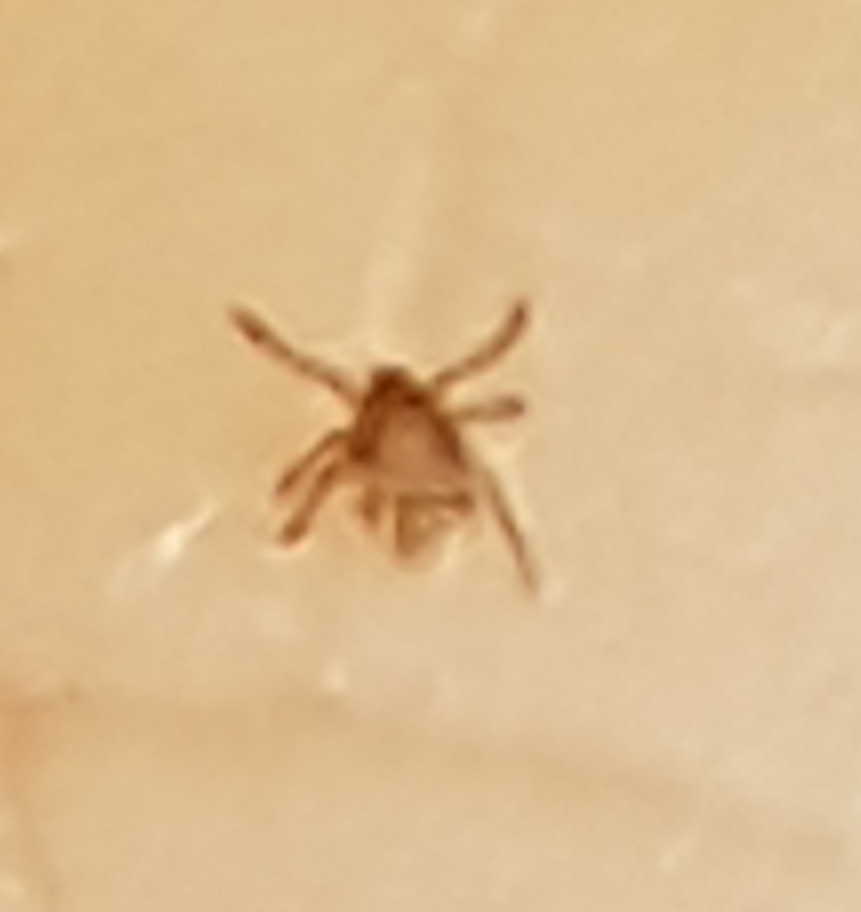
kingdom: Animalia
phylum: Arthropoda
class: Arachnida
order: Ixodida
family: Ixodidae
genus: Ixodes
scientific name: Ixodes ricinus
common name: Castor bean tick
